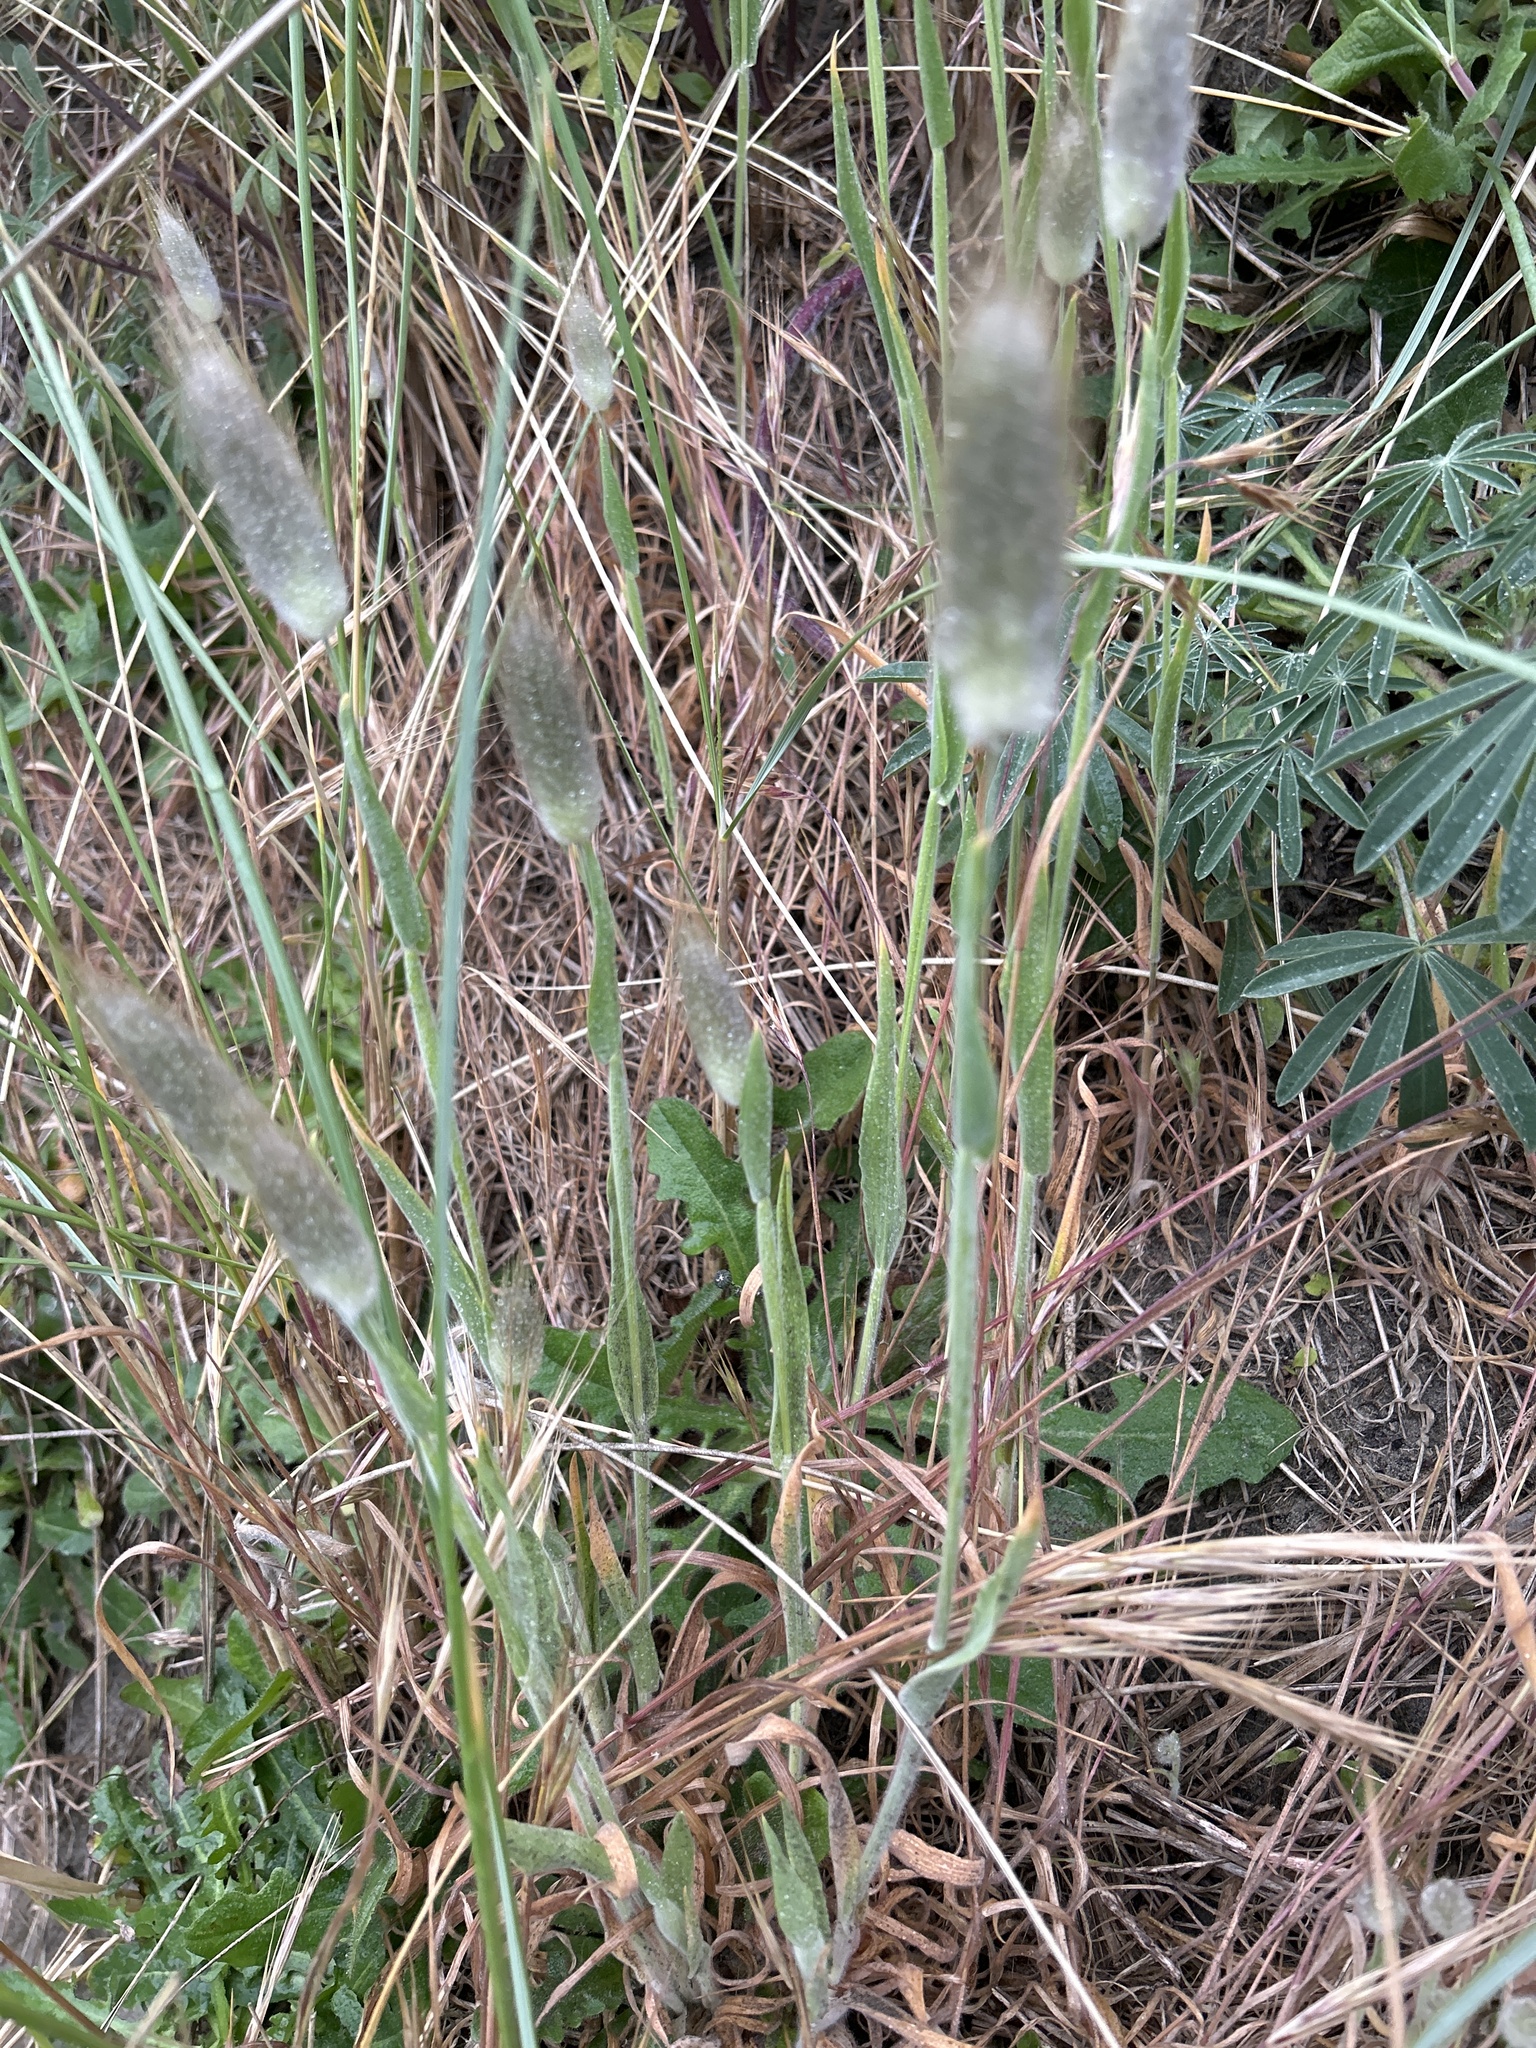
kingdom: Plantae
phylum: Tracheophyta
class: Liliopsida
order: Poales
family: Poaceae
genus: Lagurus
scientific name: Lagurus ovatus
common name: Hare's-tail
